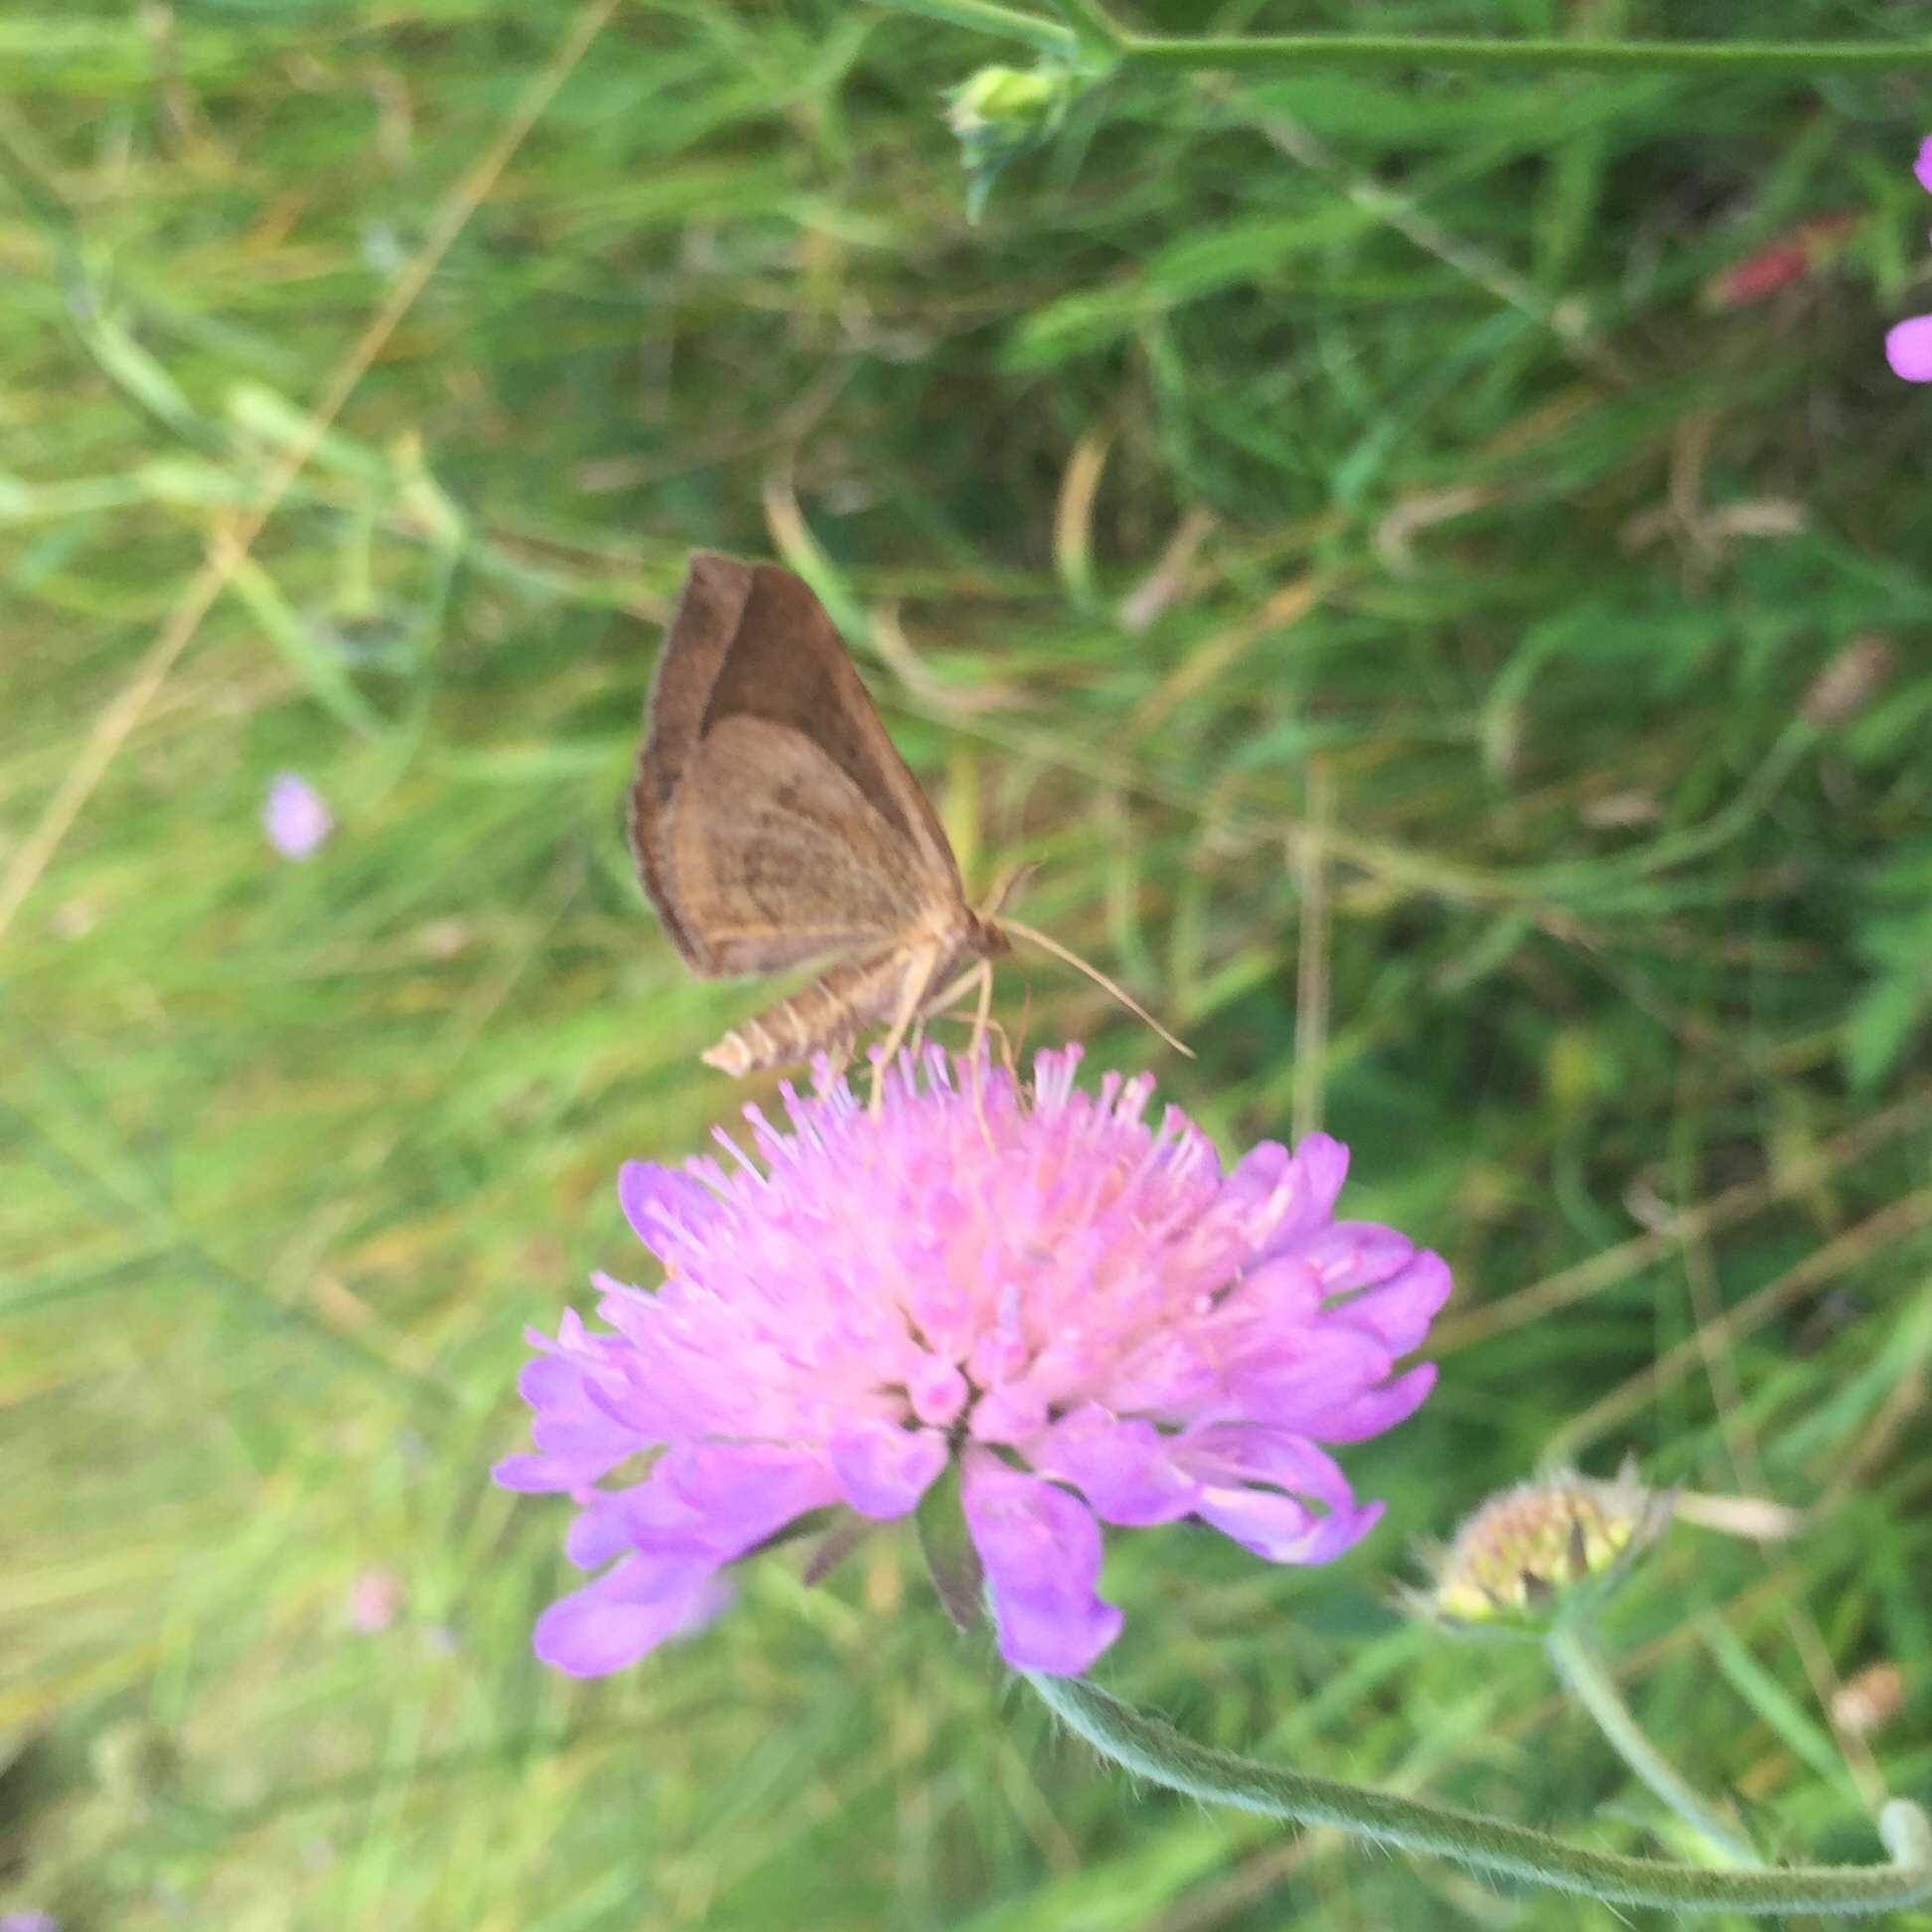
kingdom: Animalia
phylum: Arthropoda
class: Insecta
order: Lepidoptera
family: Geometridae
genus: Scotopteryx
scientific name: Scotopteryx chenopodiata
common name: Shaded broad-bar
